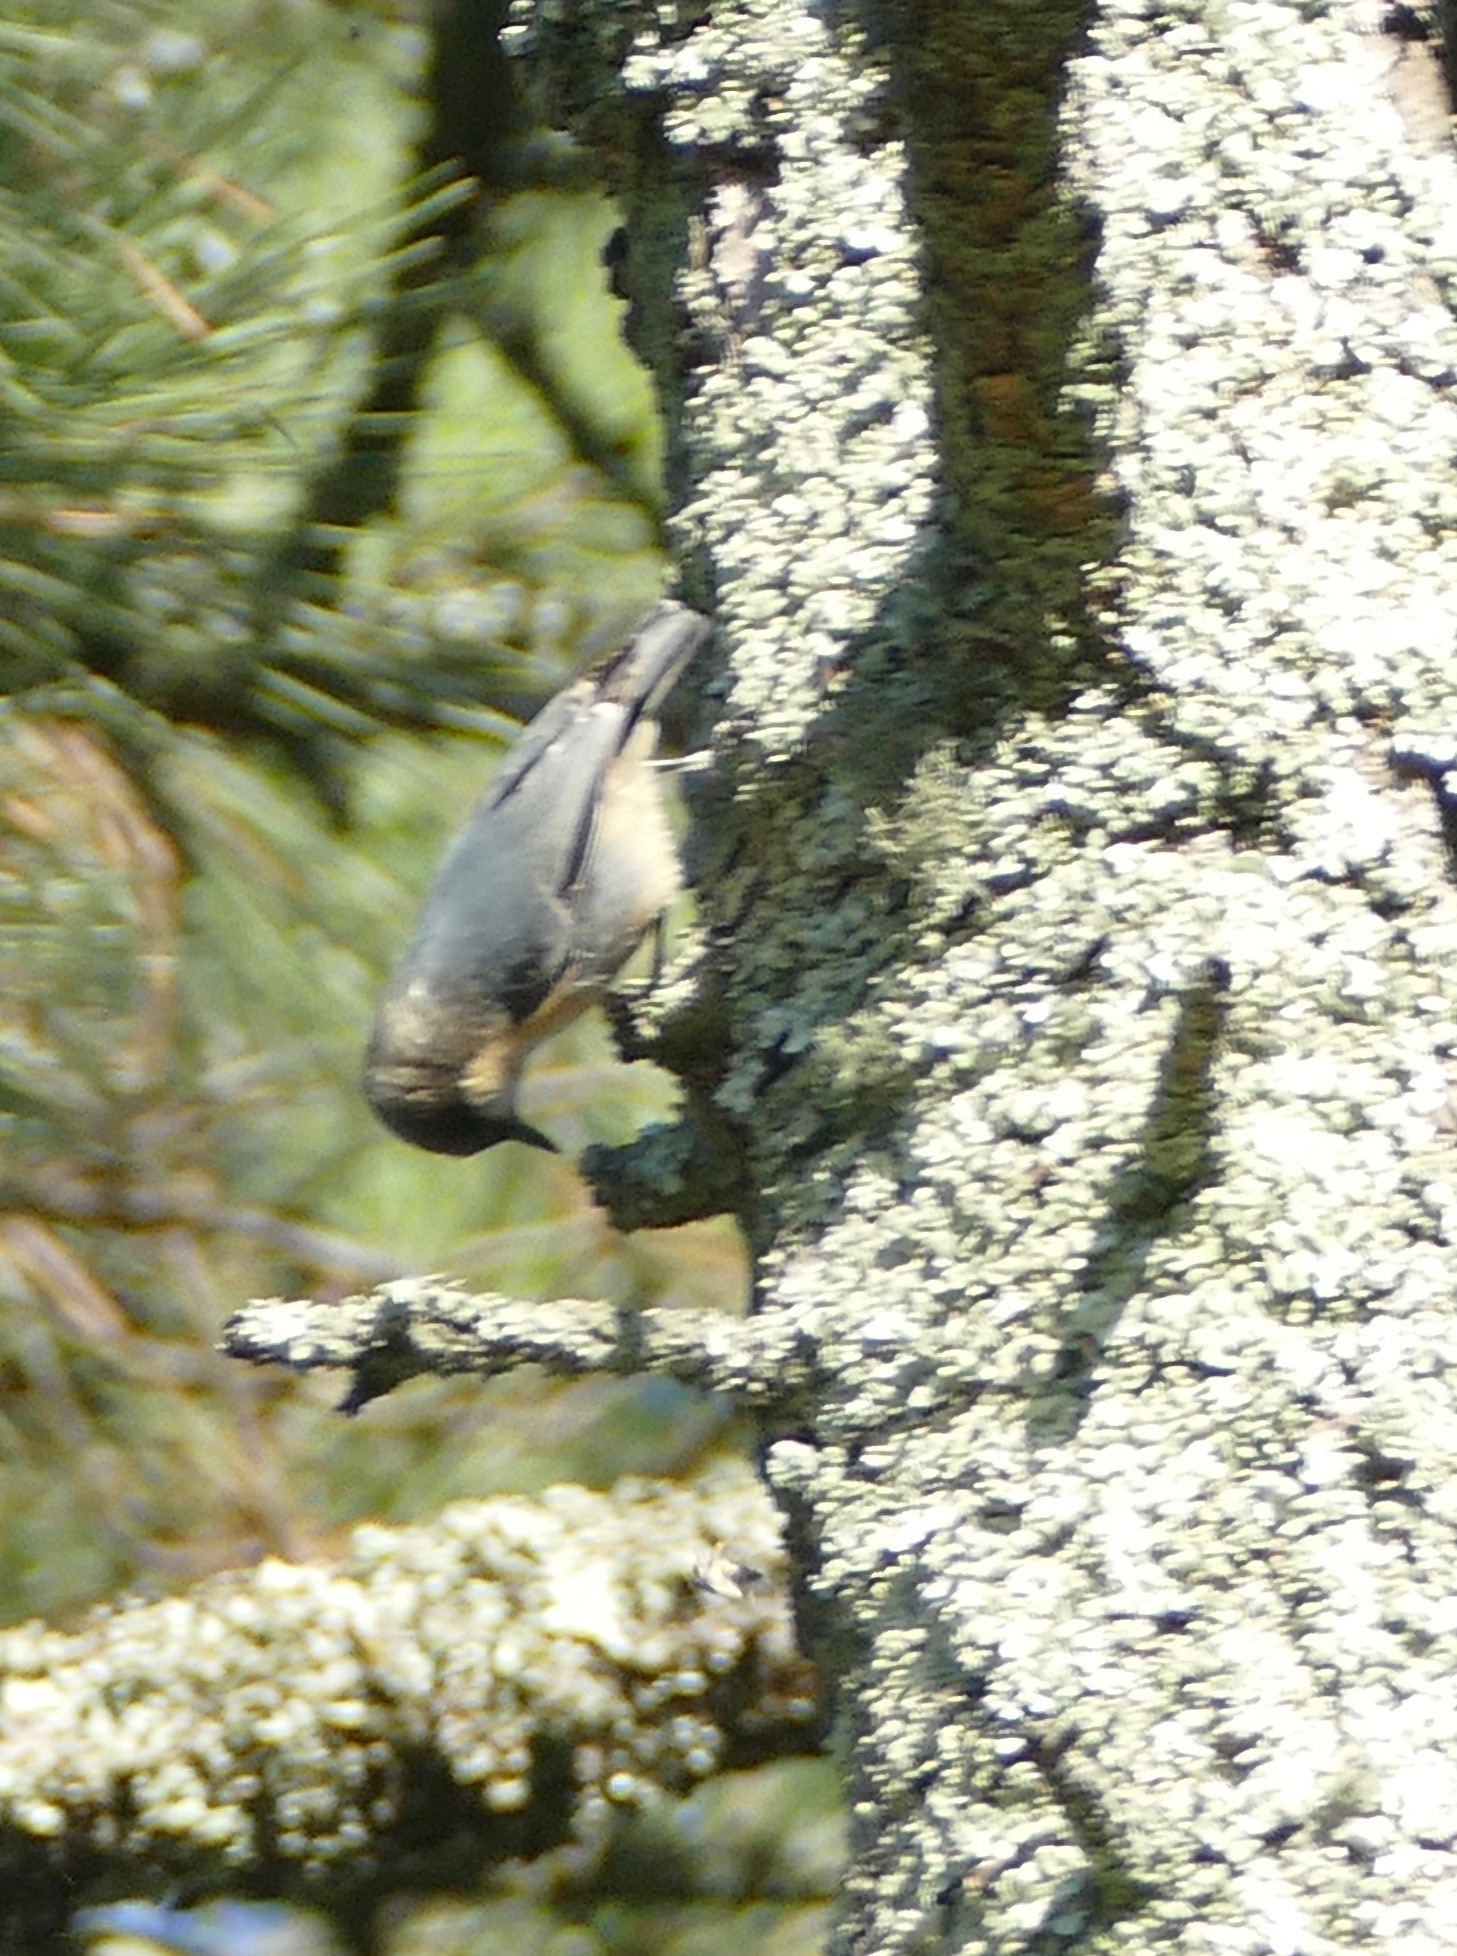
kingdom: Animalia
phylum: Chordata
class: Aves
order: Passeriformes
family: Sittidae
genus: Sitta
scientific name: Sitta pygmaea
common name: Pygmy nuthatch
